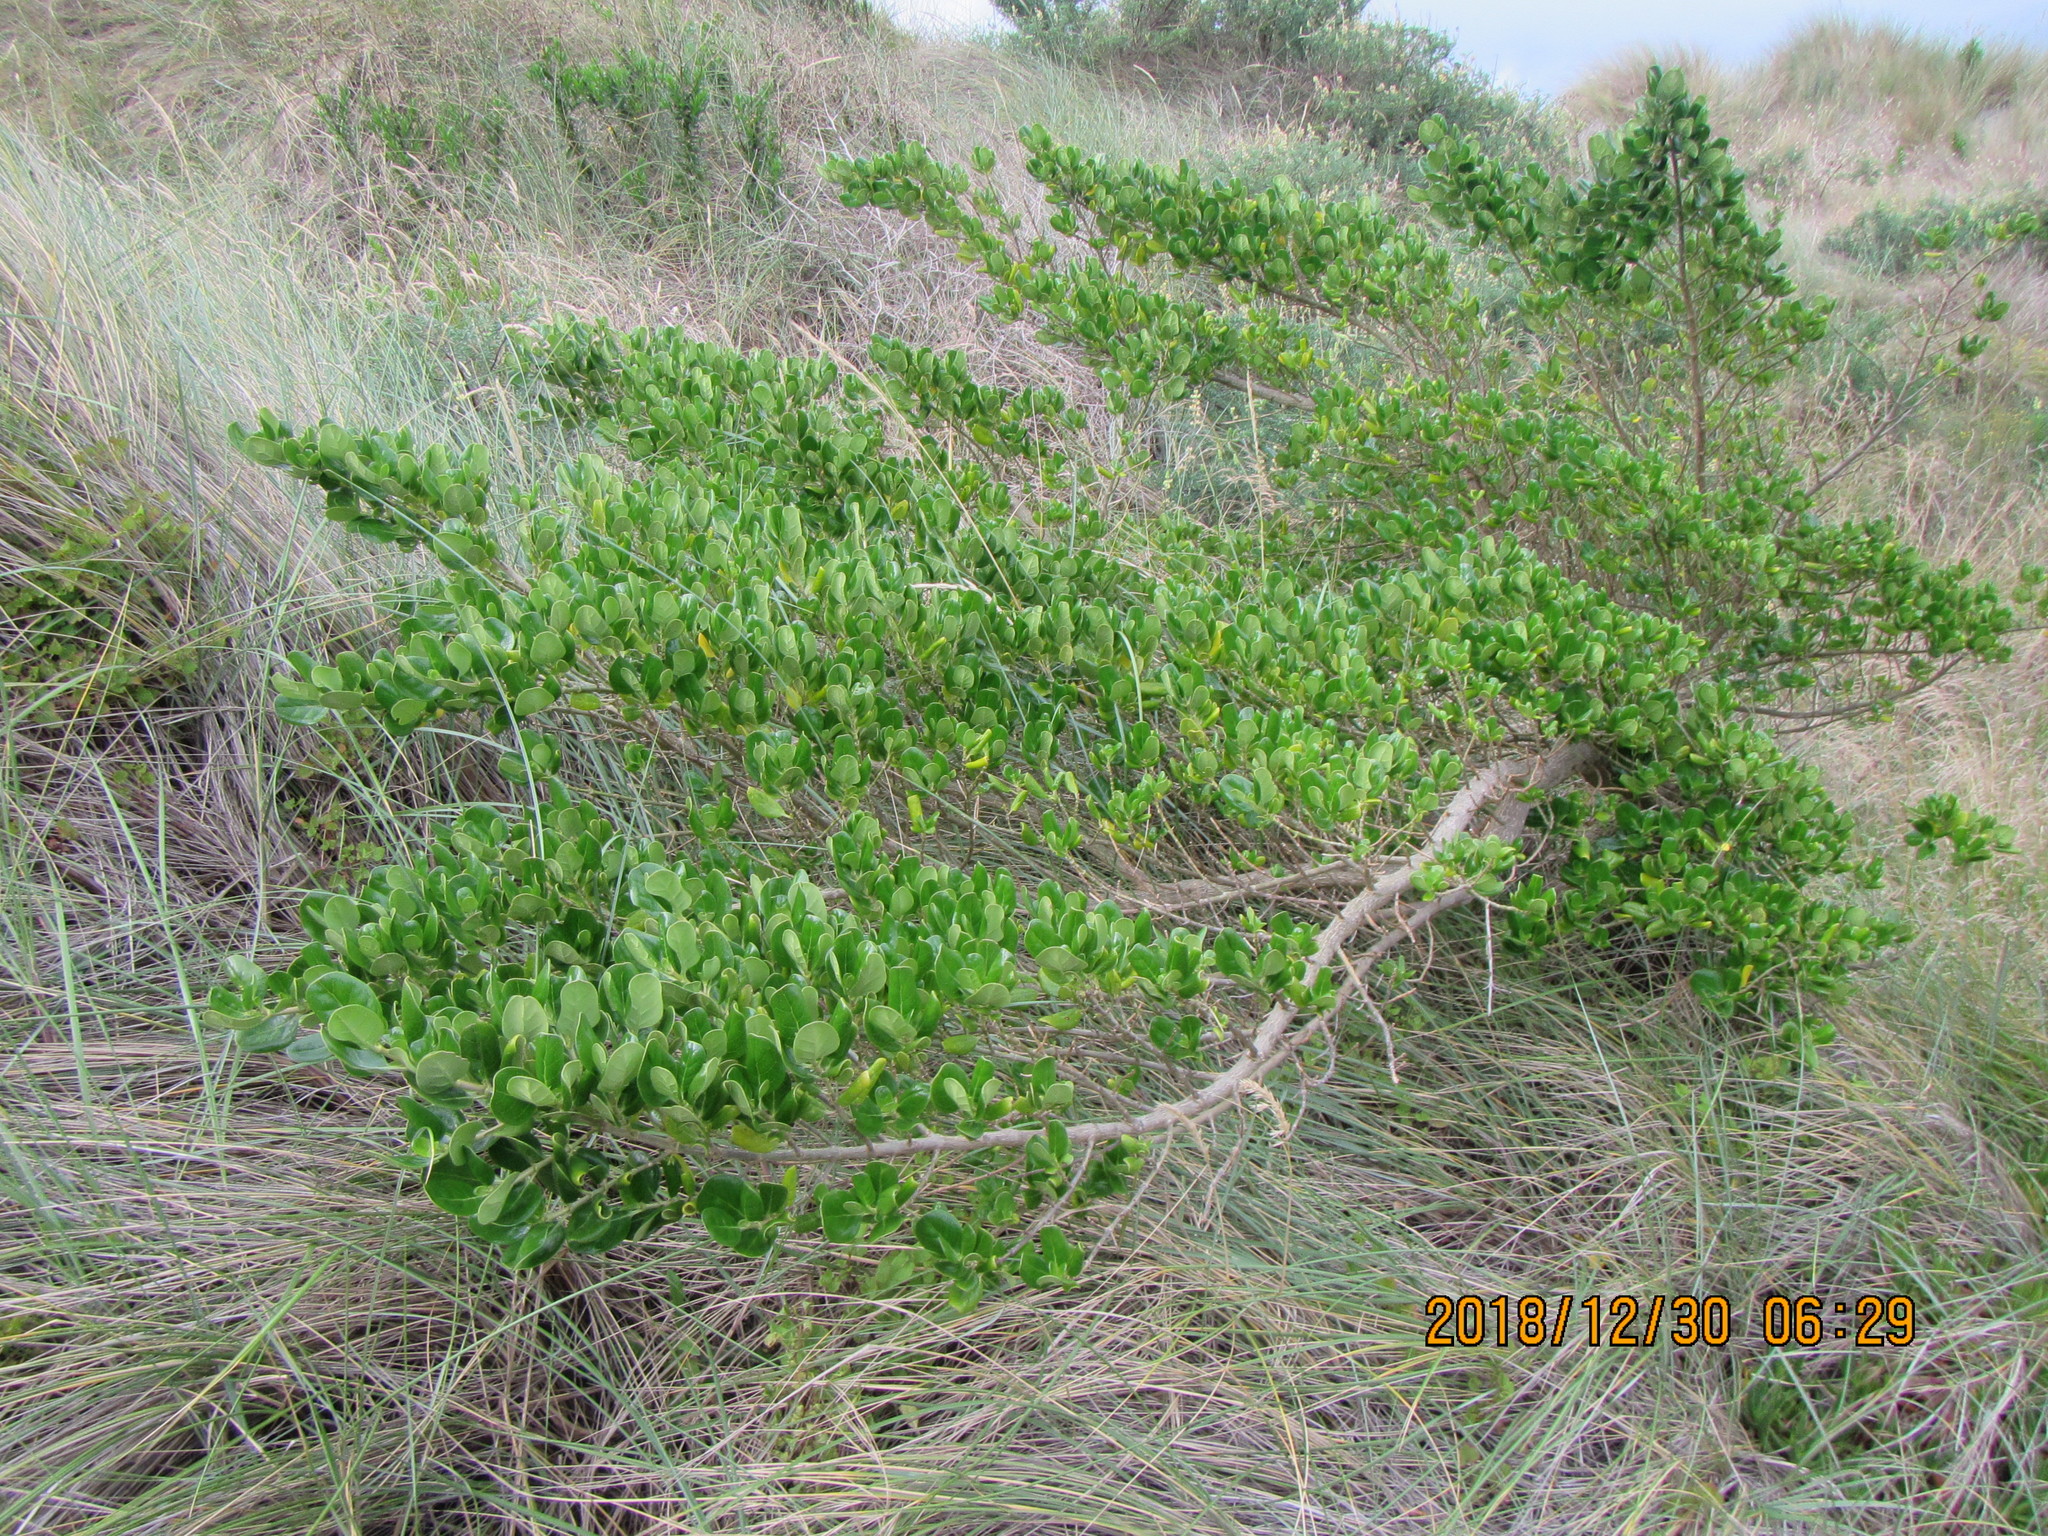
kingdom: Plantae
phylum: Tracheophyta
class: Magnoliopsida
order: Gentianales
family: Rubiaceae
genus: Coprosma
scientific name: Coprosma repens
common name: Tree bedstraw
